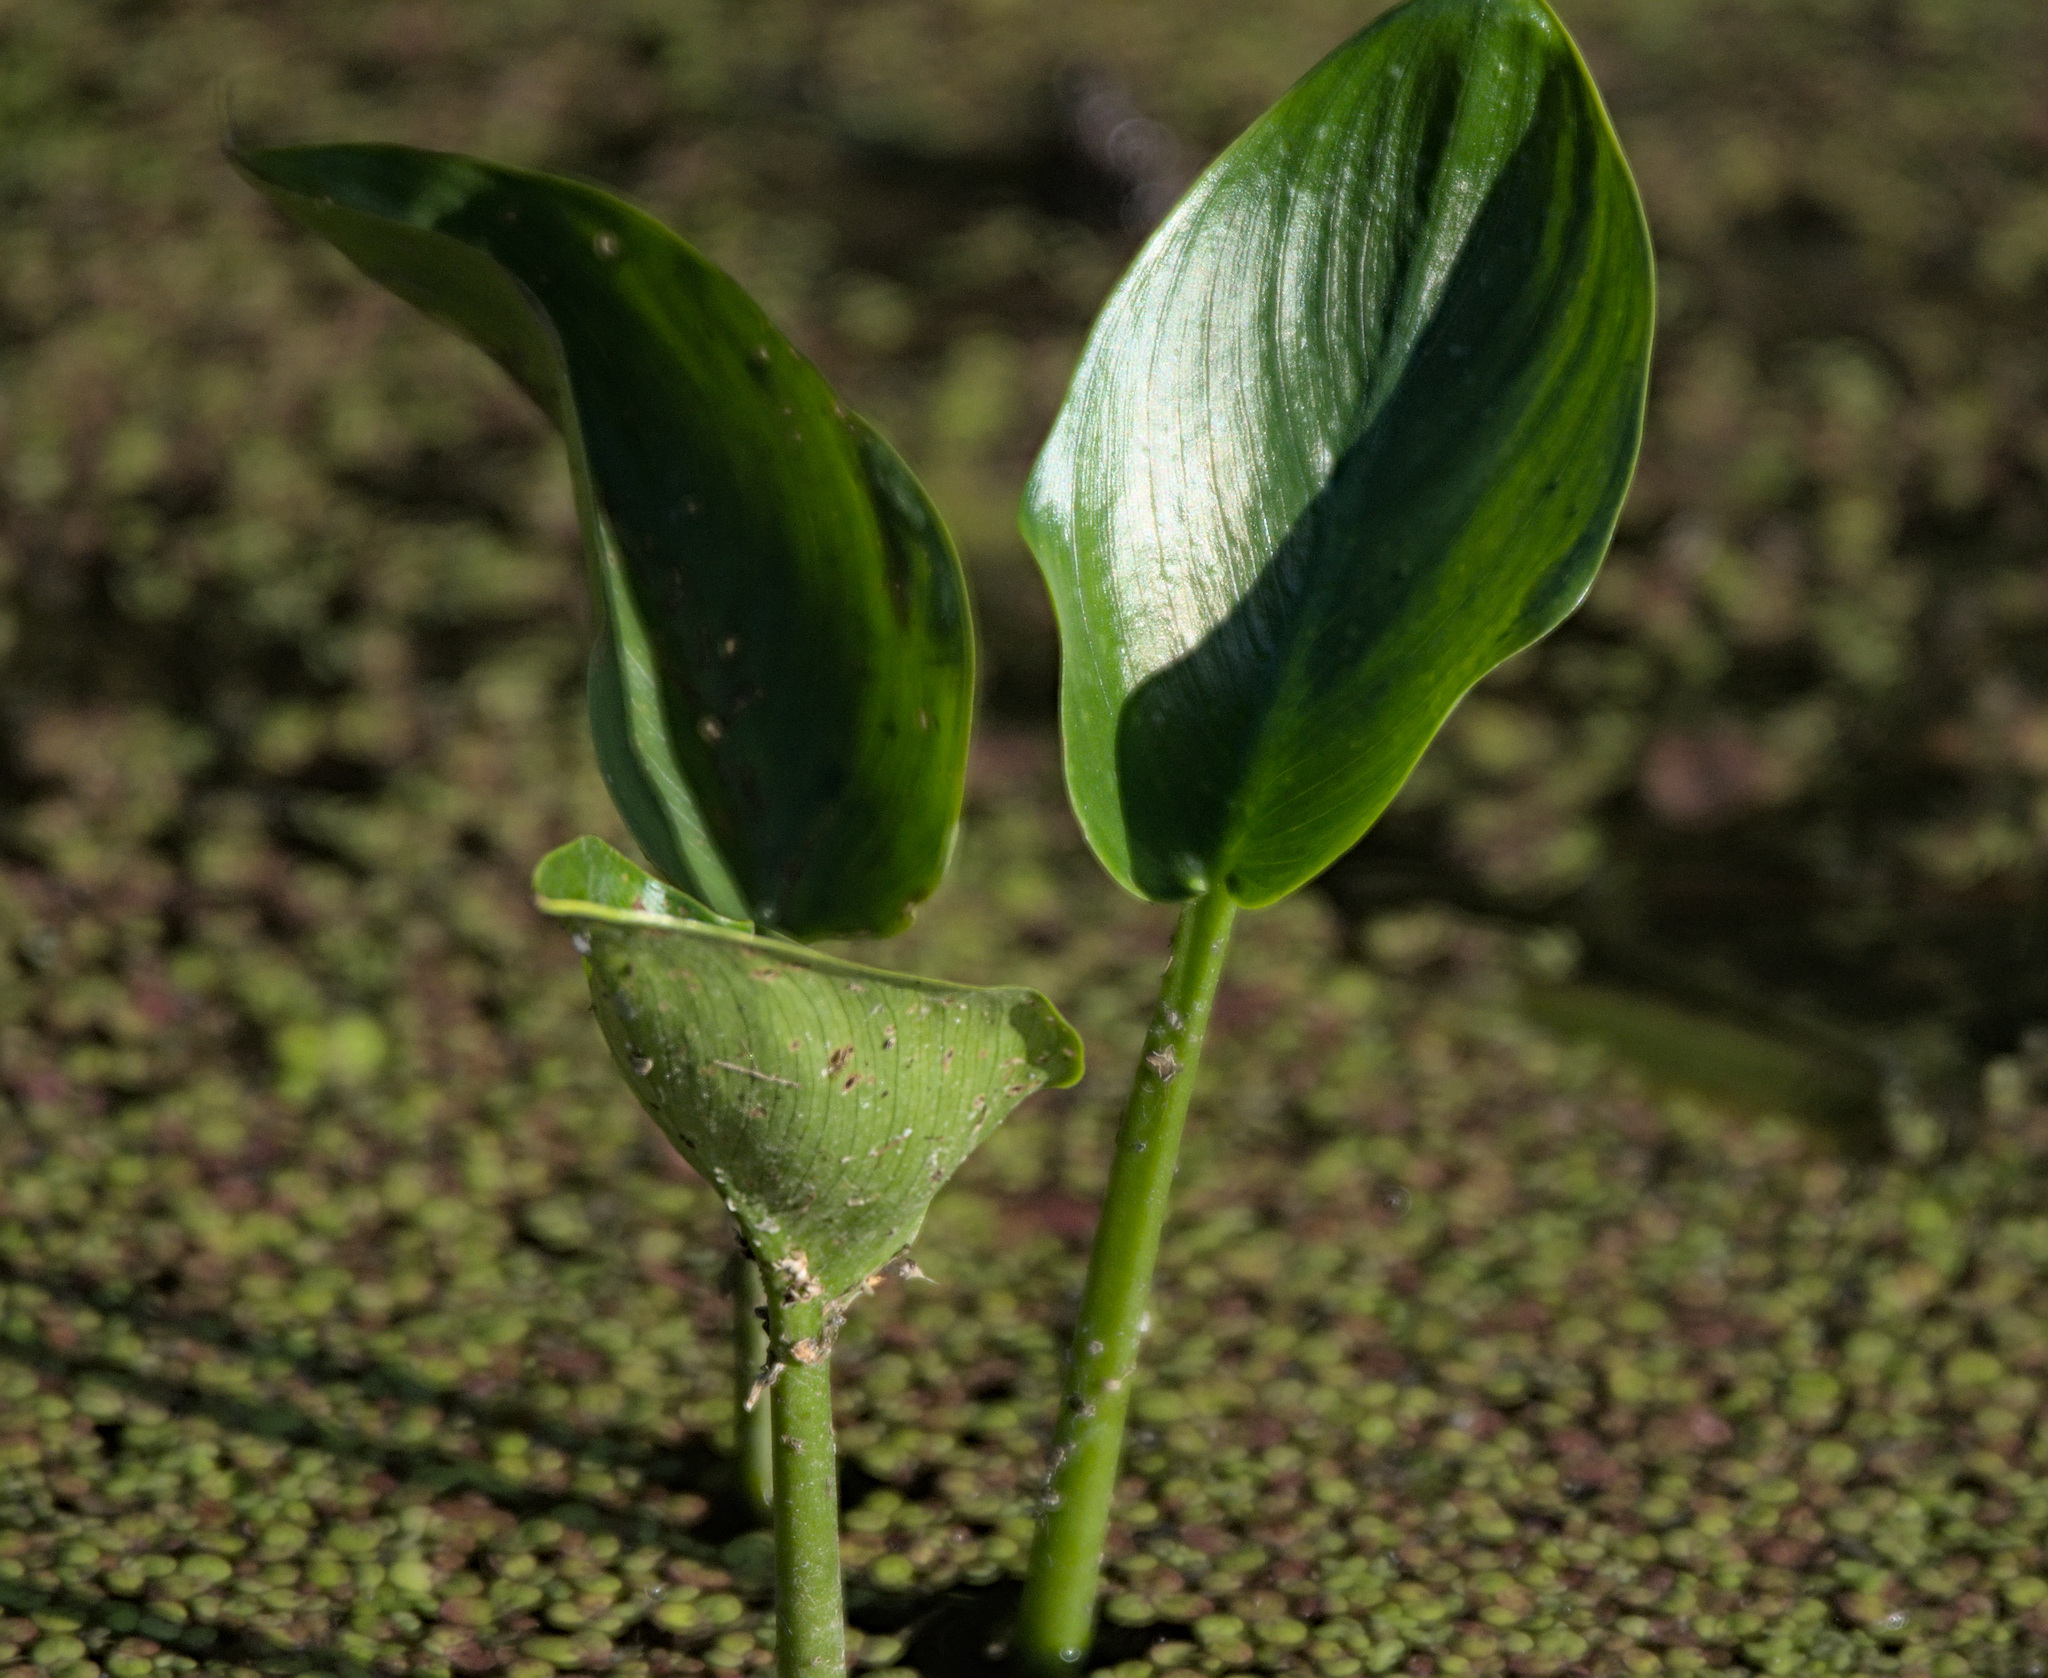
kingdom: Plantae
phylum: Tracheophyta
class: Liliopsida
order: Alismatales
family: Araceae
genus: Calla
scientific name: Calla palustris
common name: Bog arum
